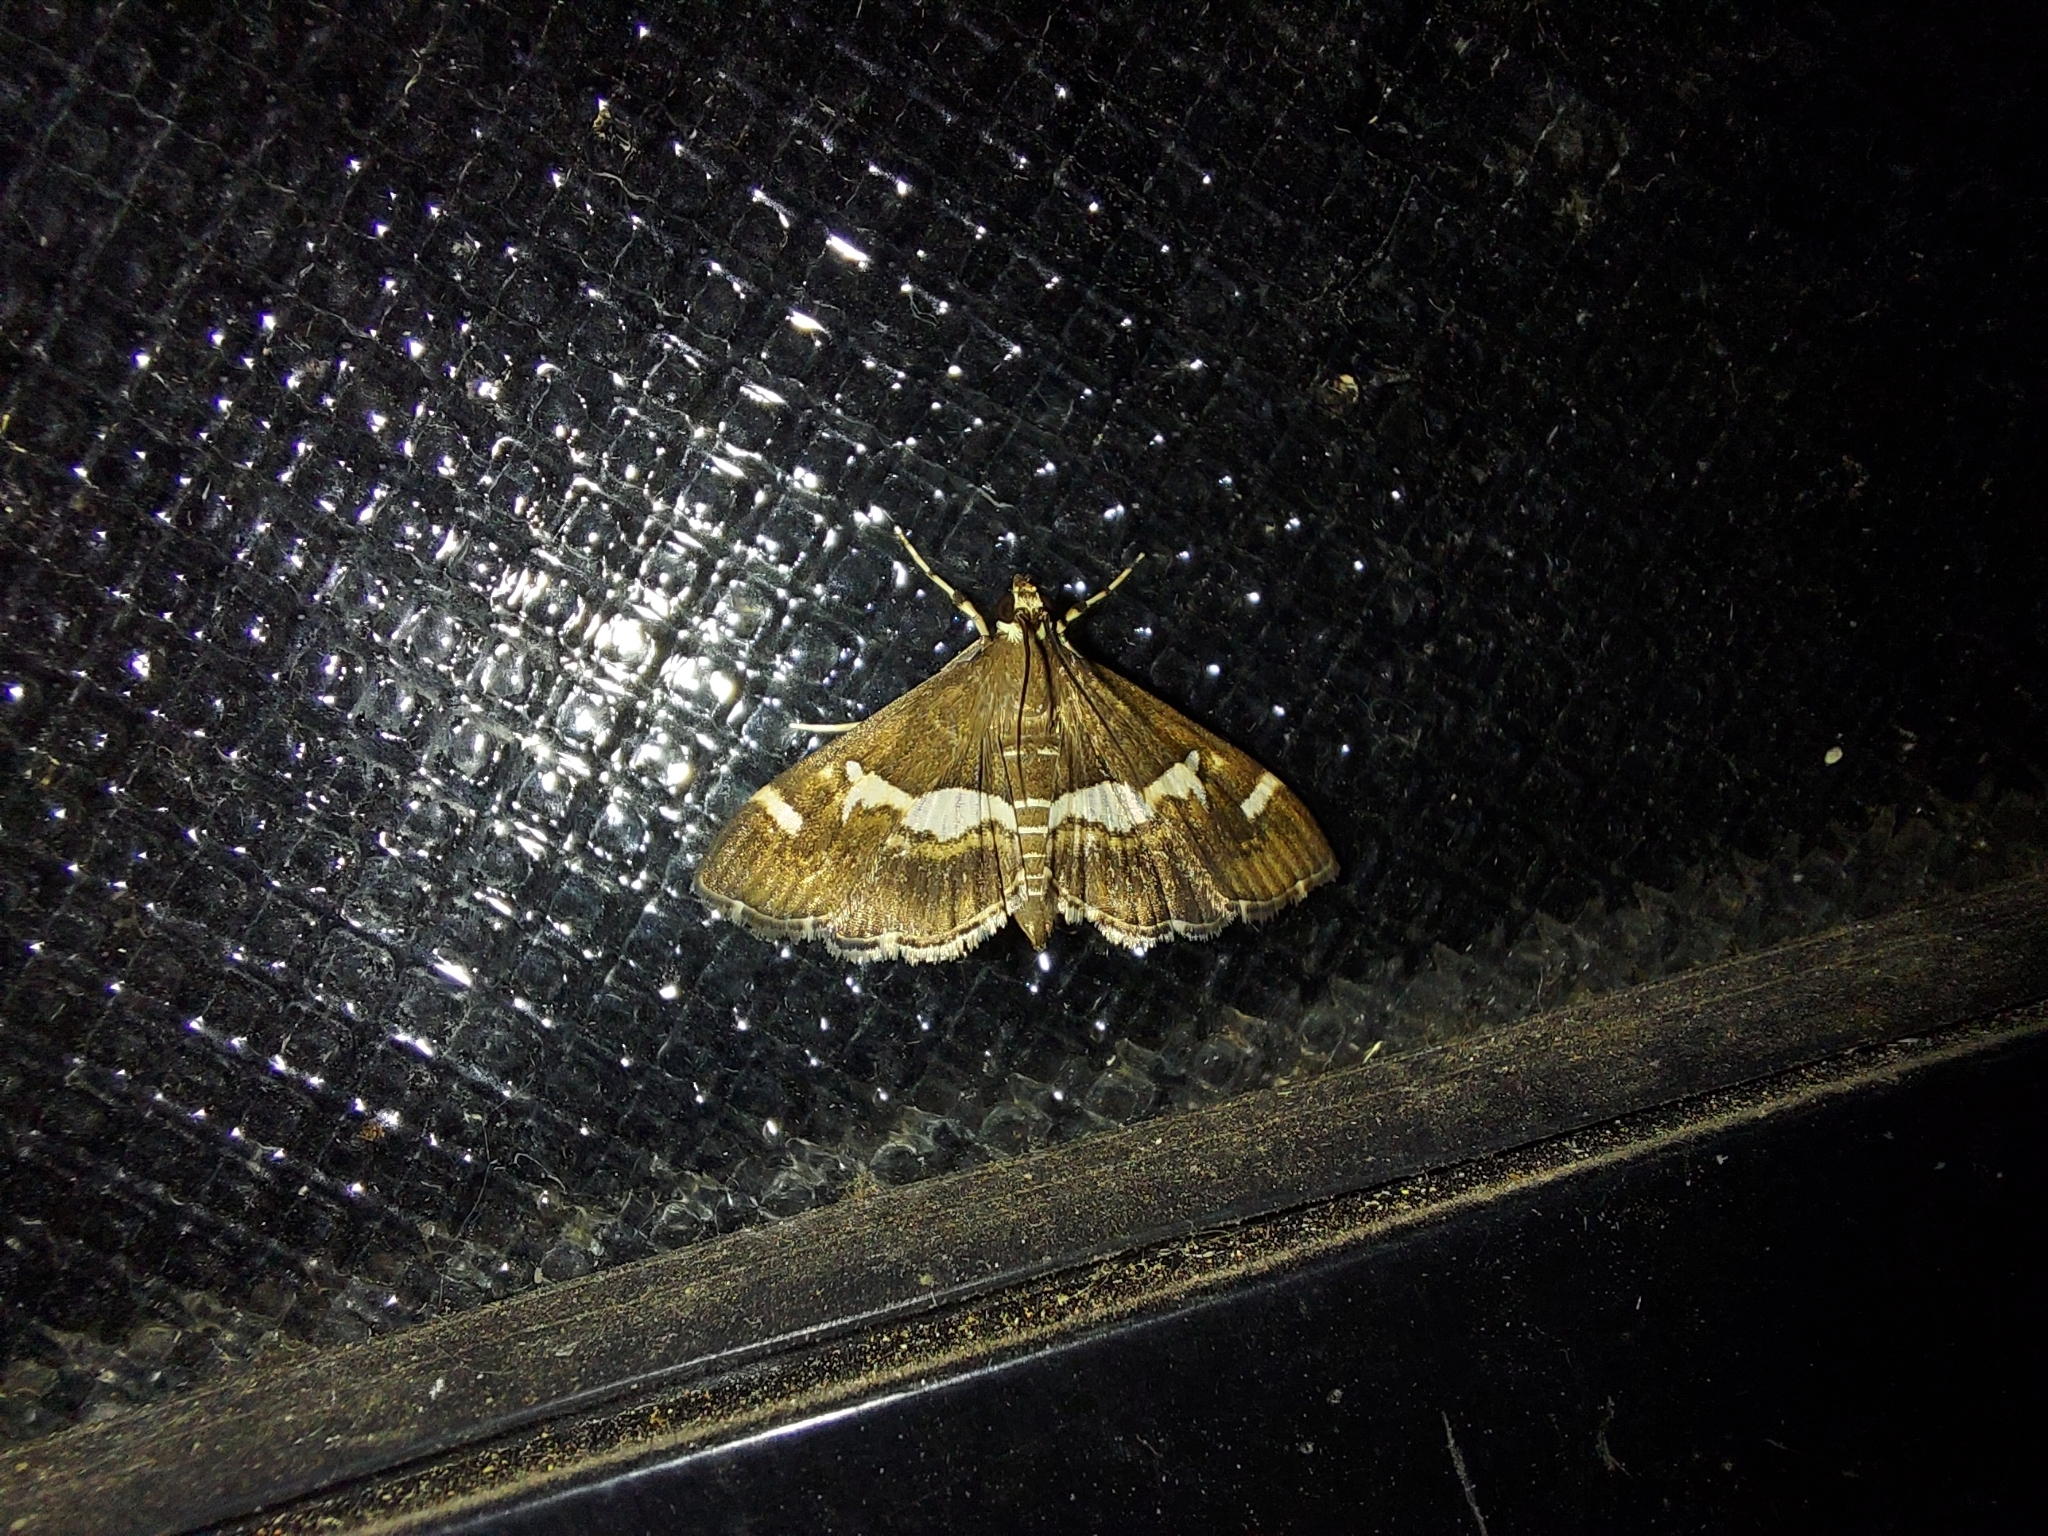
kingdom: Animalia
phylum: Arthropoda
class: Insecta
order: Lepidoptera
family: Crambidae
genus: Spoladea
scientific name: Spoladea recurvalis
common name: Beet webworm moth
